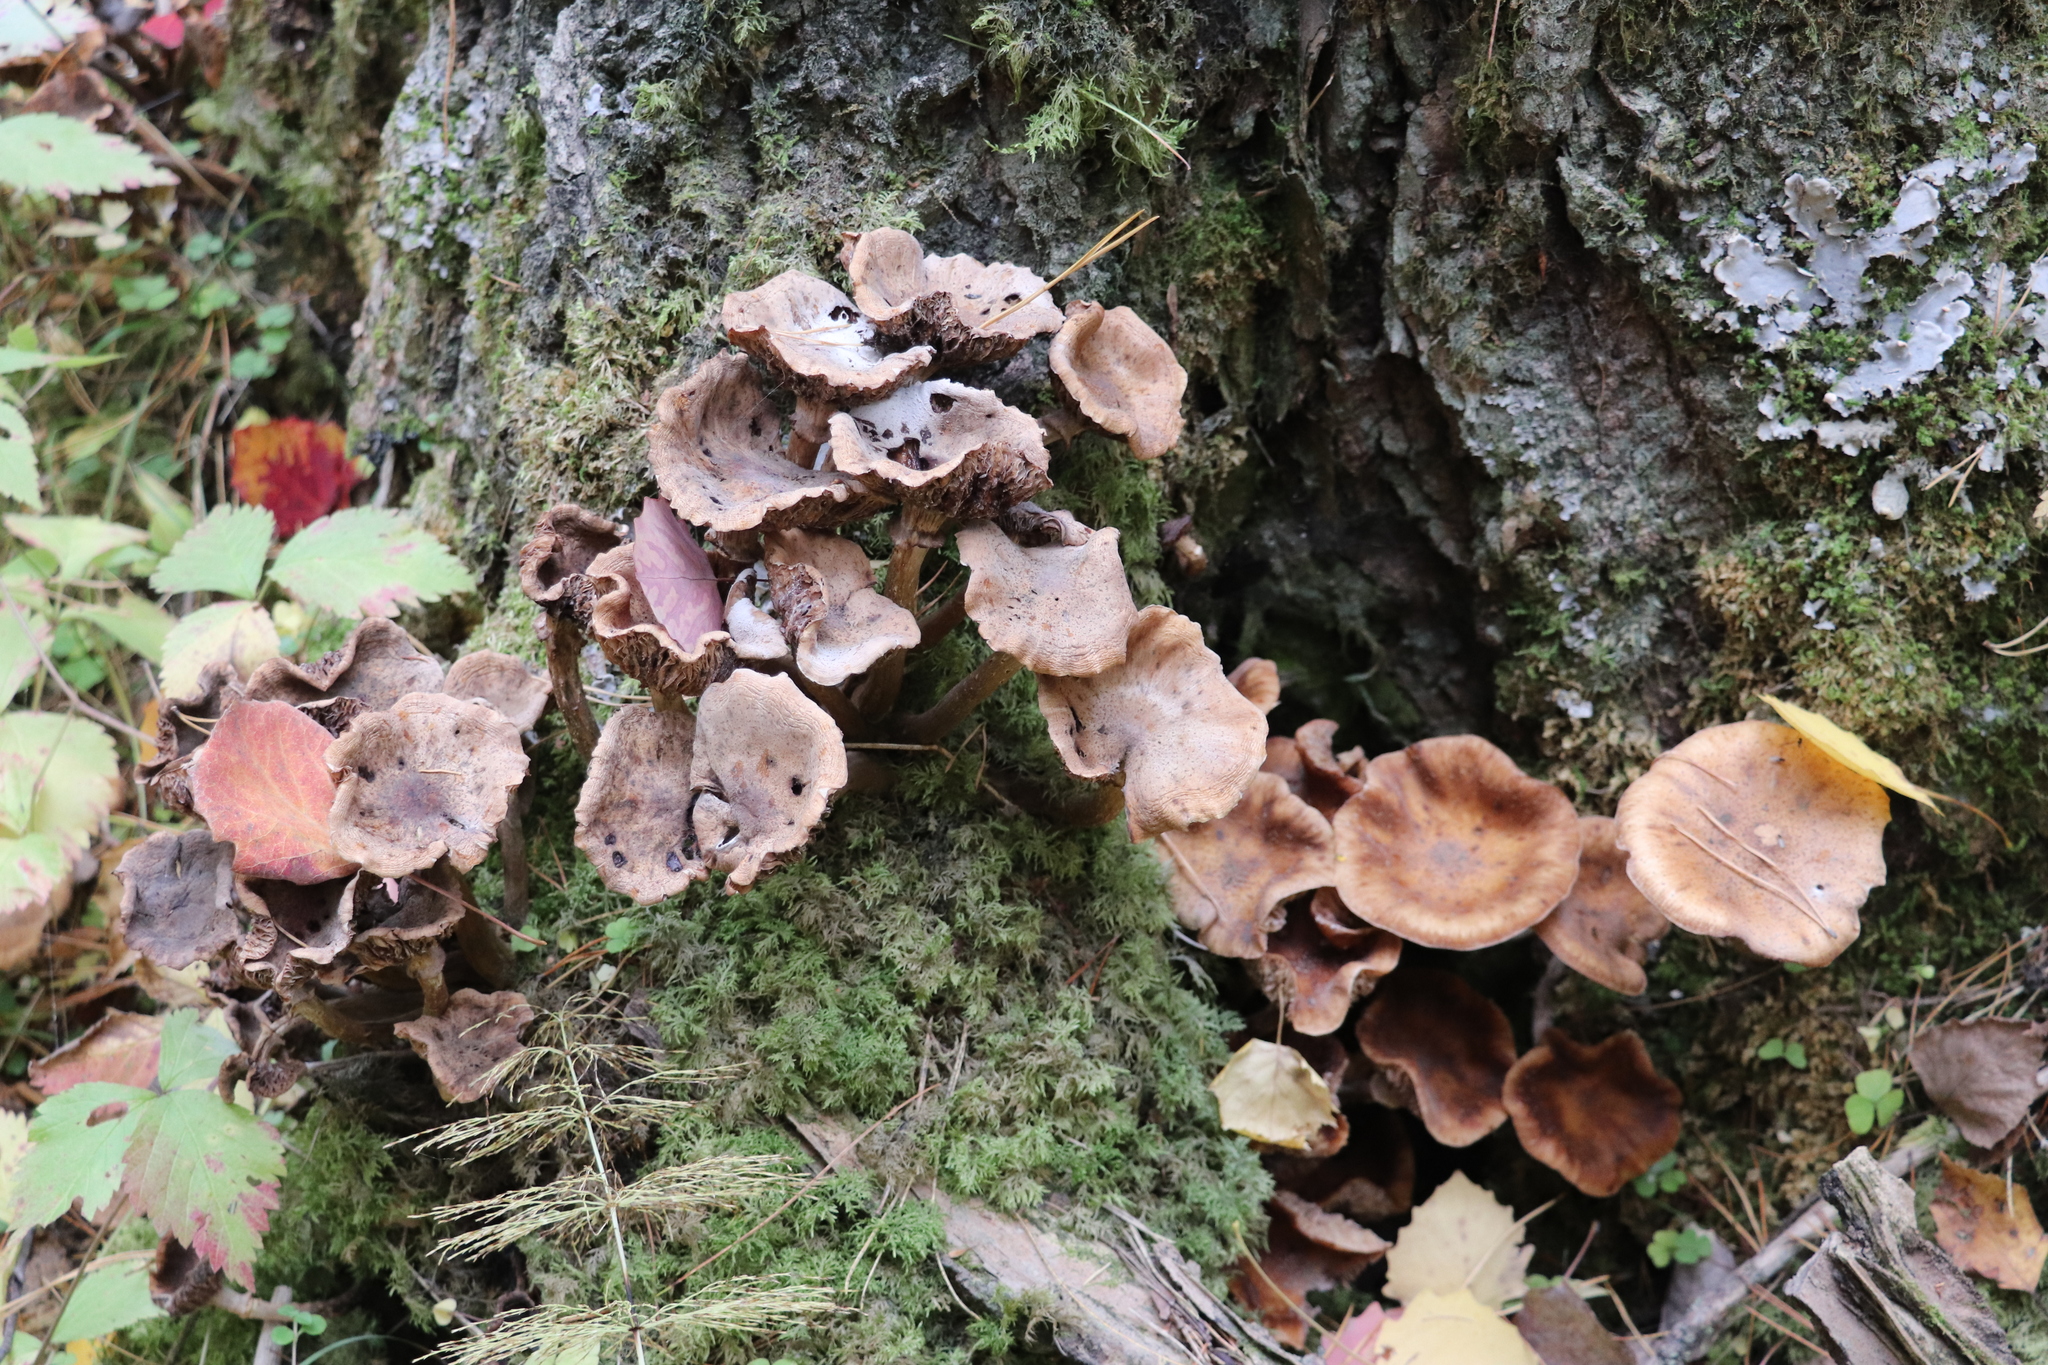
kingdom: Fungi
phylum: Basidiomycota
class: Agaricomycetes
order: Agaricales
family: Physalacriaceae
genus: Armillaria
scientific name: Armillaria mellea
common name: Honey fungus
